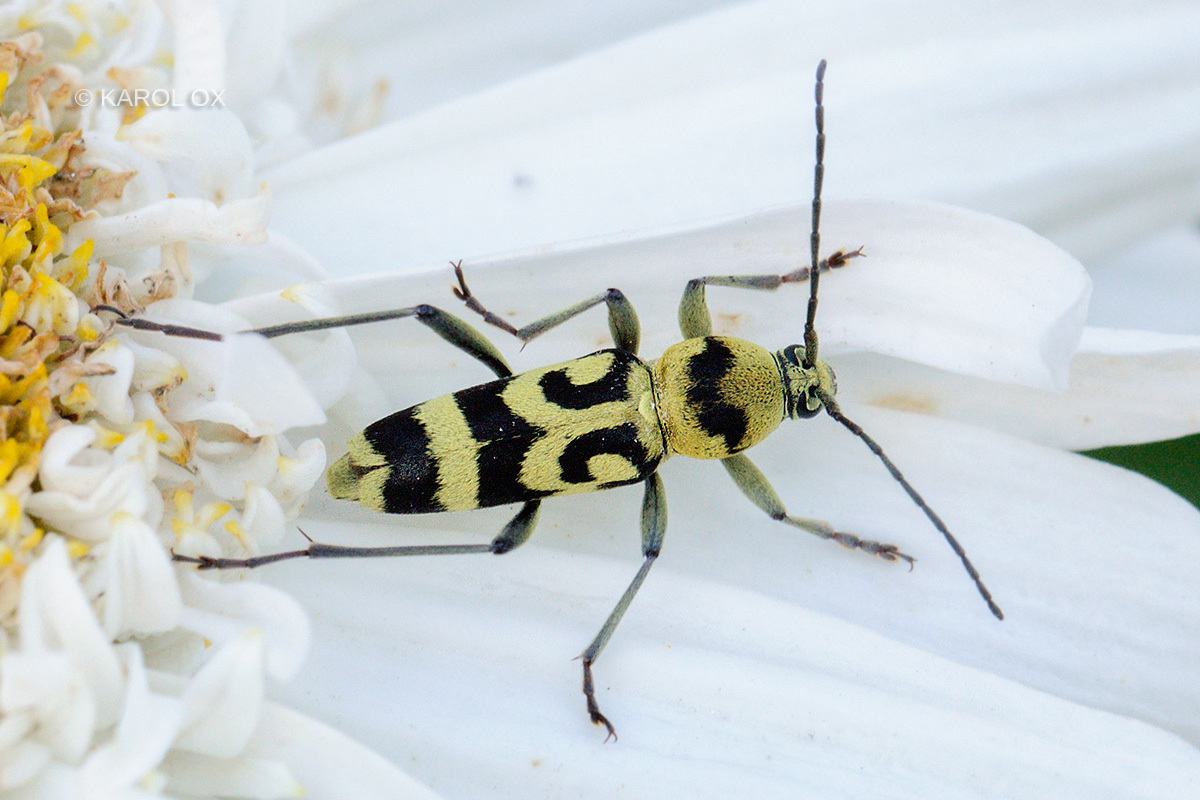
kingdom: Animalia
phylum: Arthropoda
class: Insecta
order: Coleoptera
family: Cerambycidae
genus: Chlorophorus
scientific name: Chlorophorus varius
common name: Grape wood borer
